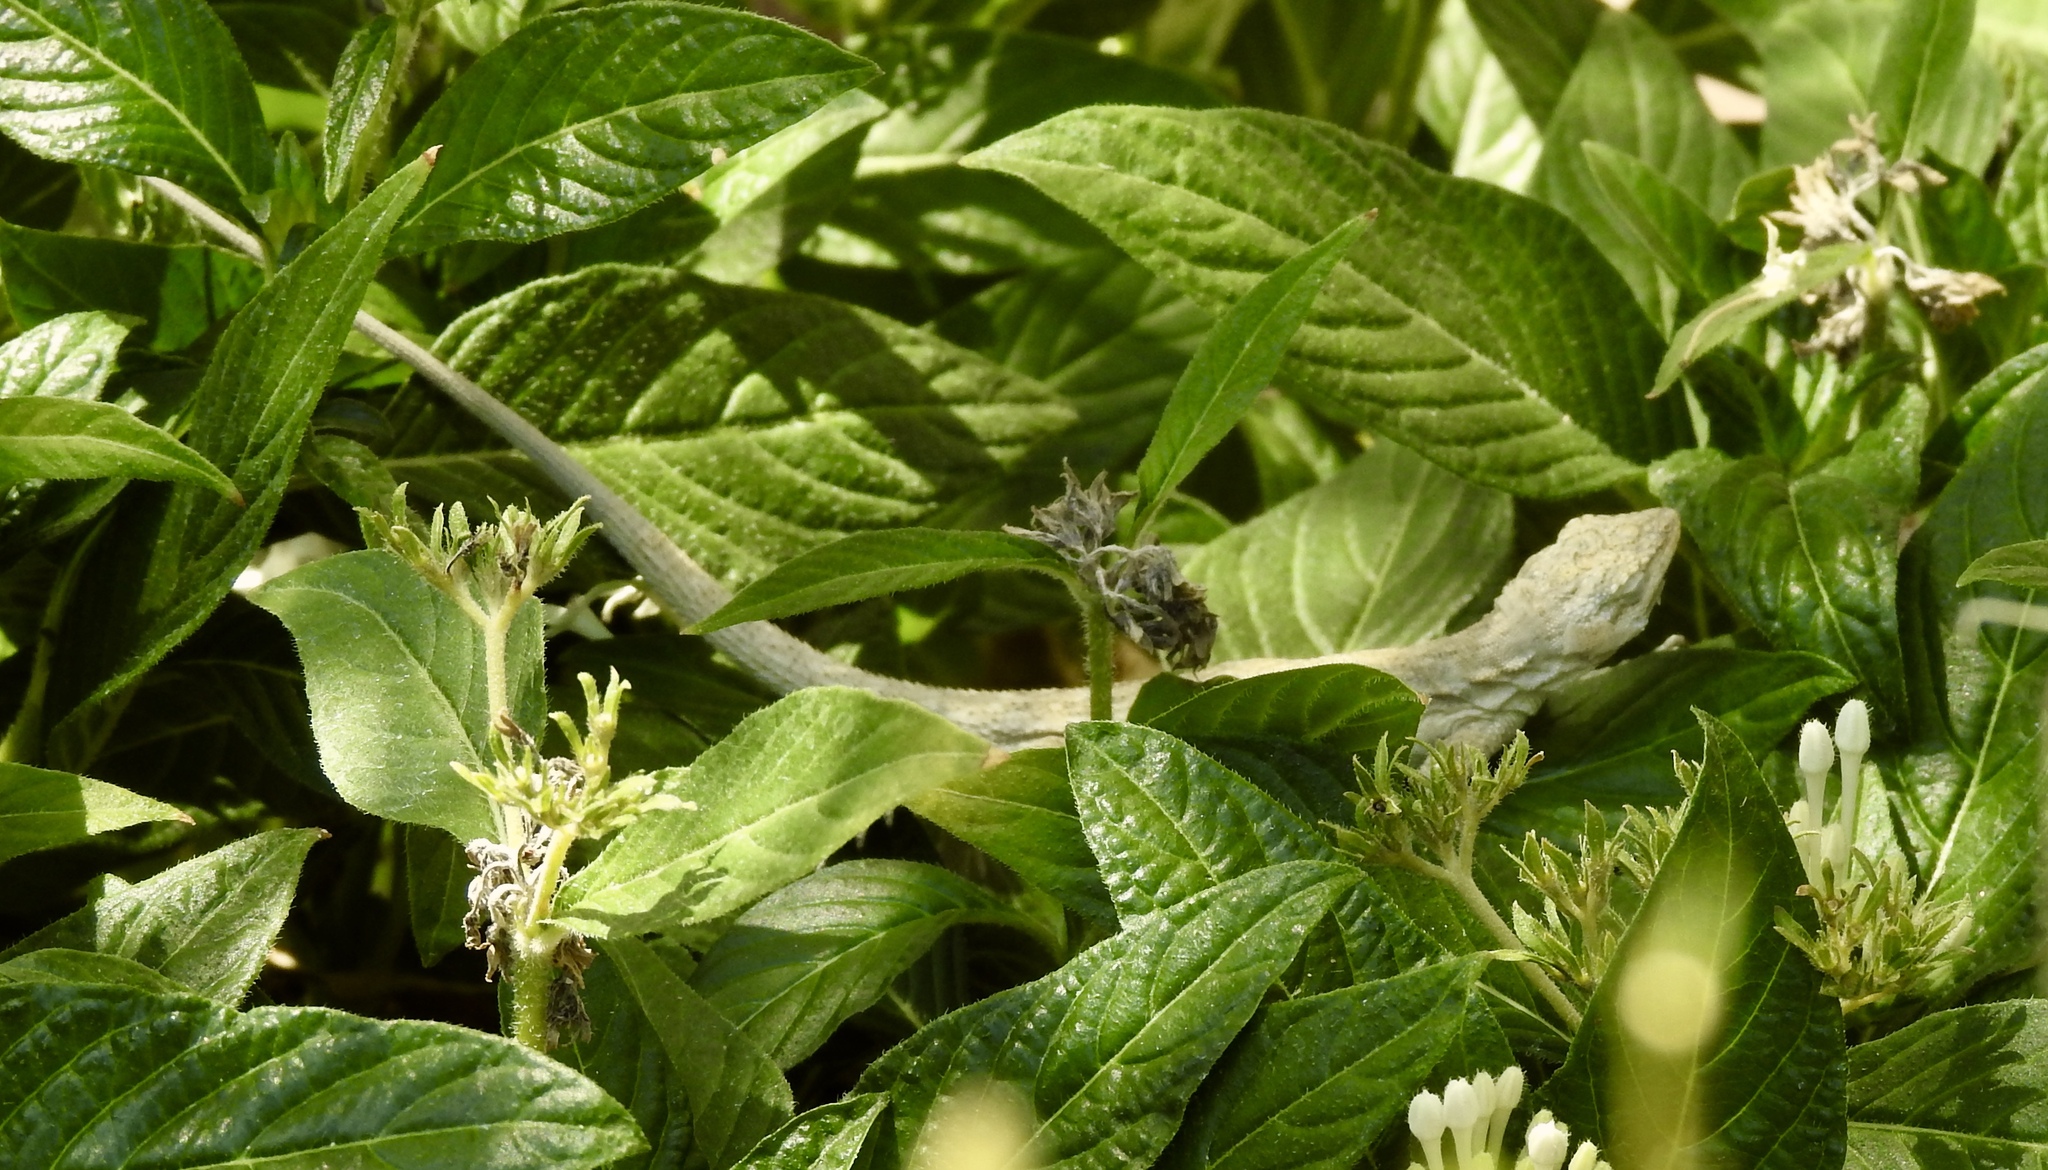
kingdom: Animalia
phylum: Chordata
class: Squamata
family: Phrynosomatidae
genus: Urosaurus
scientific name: Urosaurus graciosus
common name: Long-tailed brush lizard
